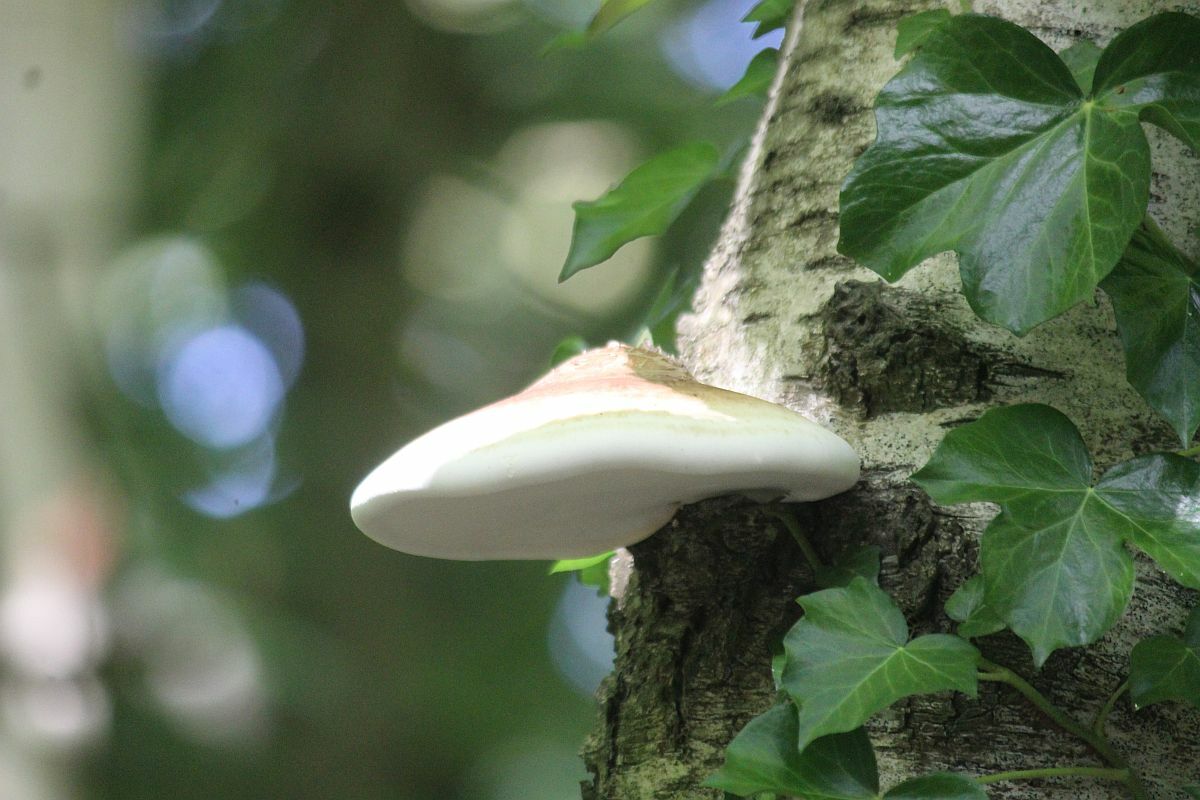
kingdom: Fungi
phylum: Basidiomycota
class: Agaricomycetes
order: Polyporales
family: Fomitopsidaceae
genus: Fomitopsis
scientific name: Fomitopsis betulina
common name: Birch polypore
